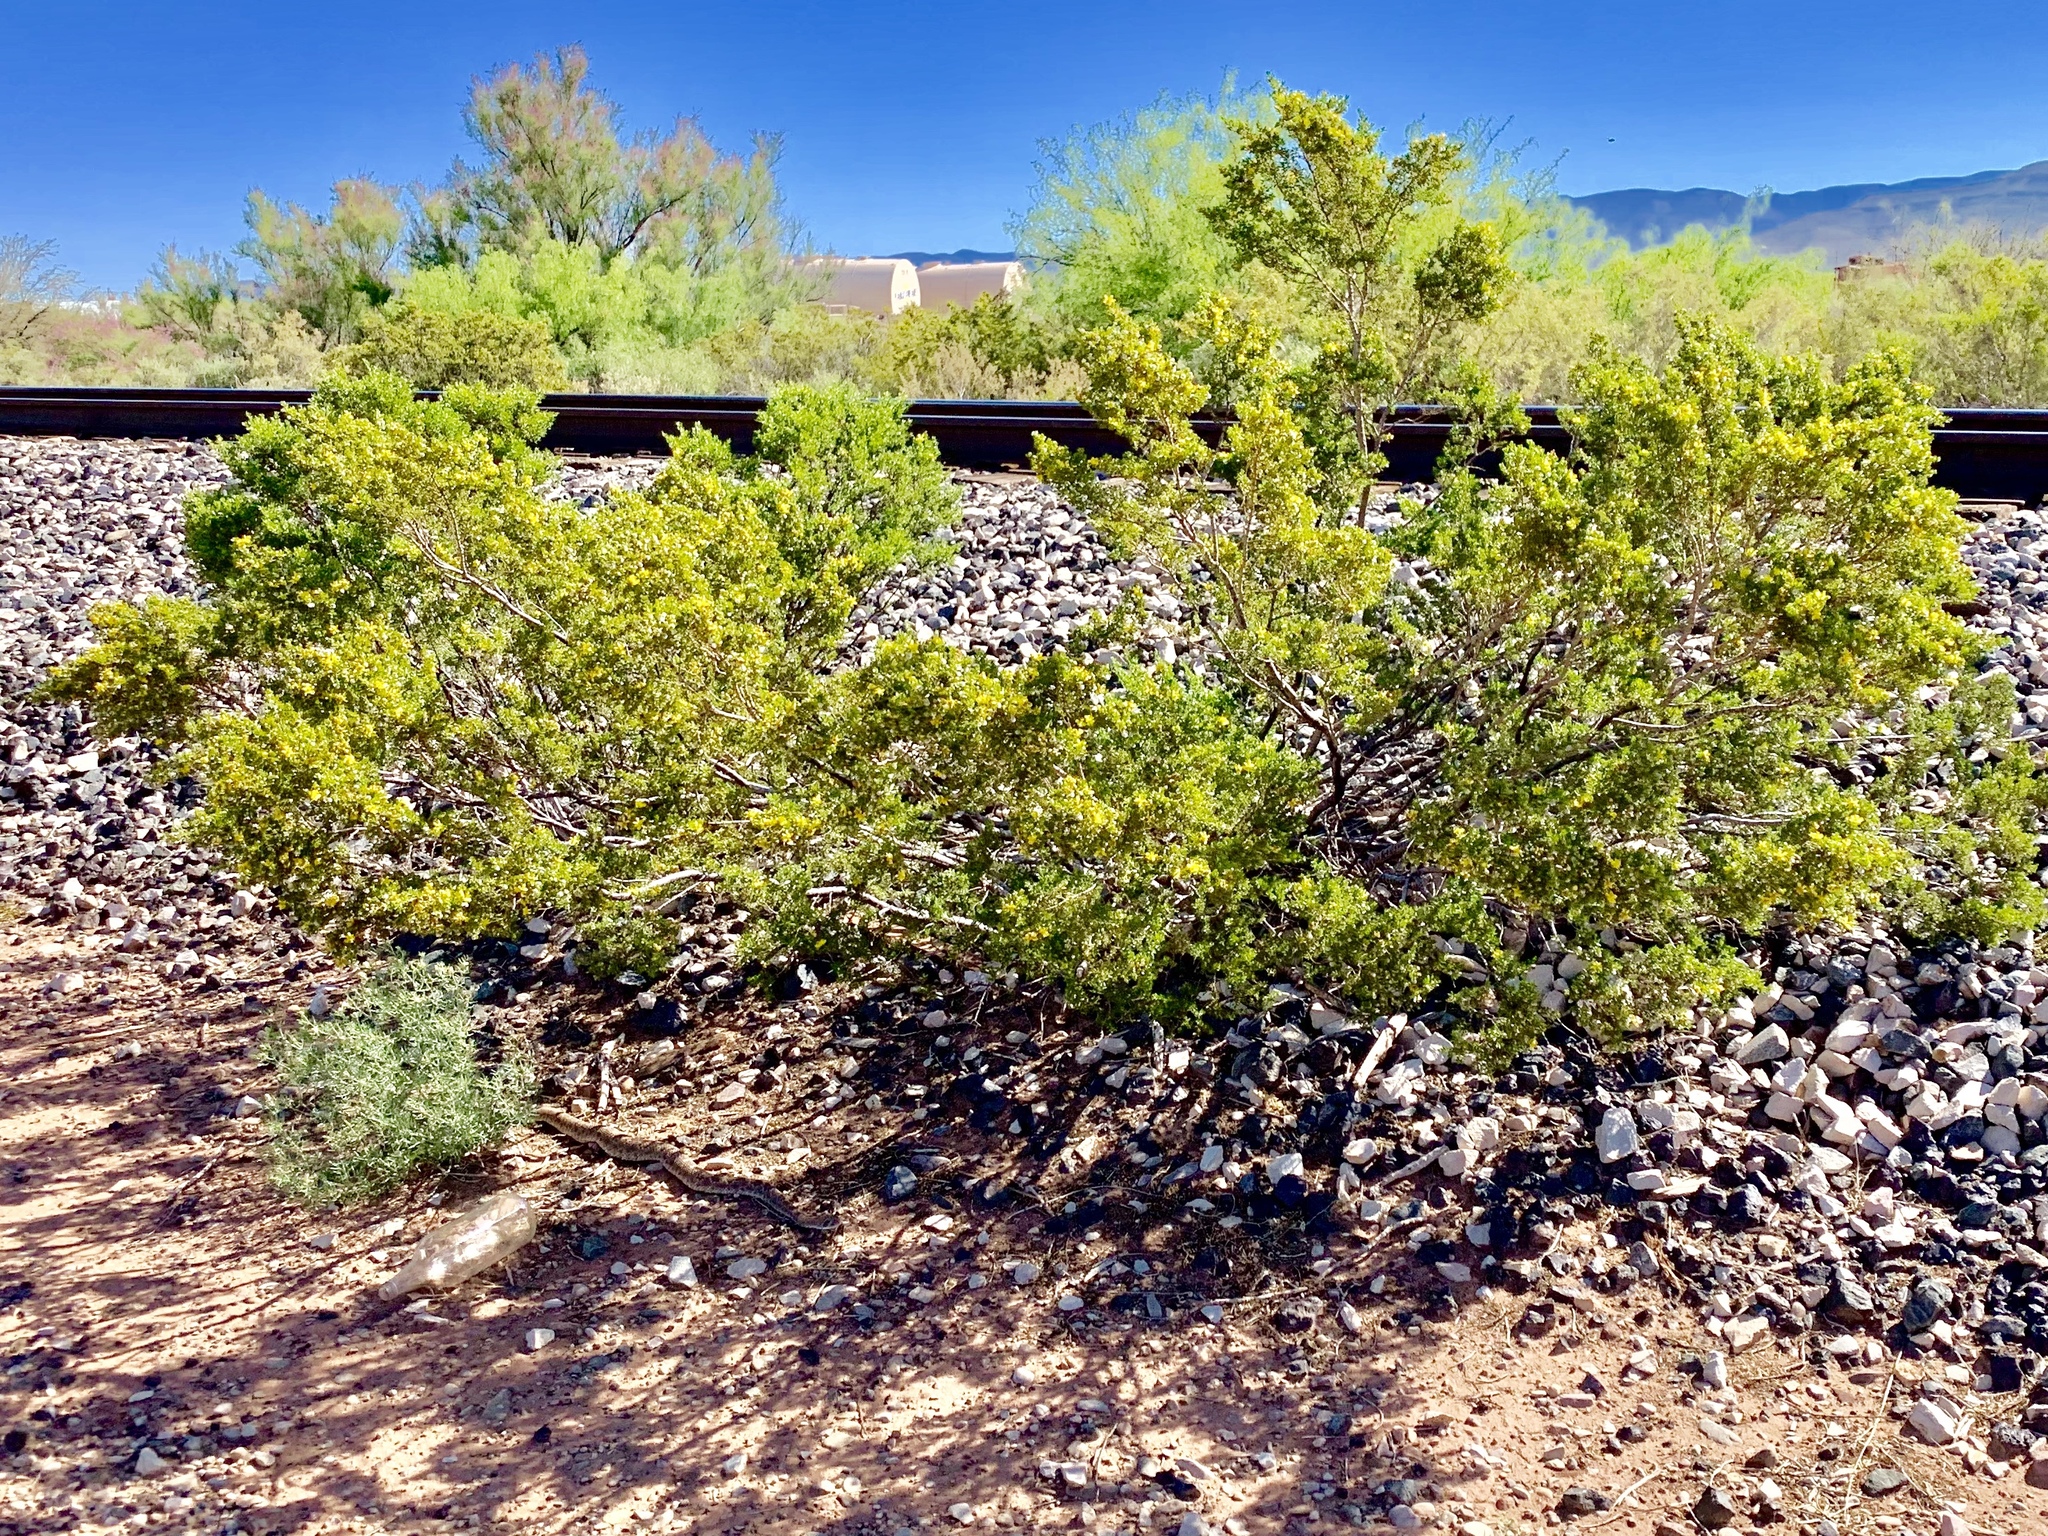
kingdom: Plantae
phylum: Tracheophyta
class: Magnoliopsida
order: Zygophyllales
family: Zygophyllaceae
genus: Larrea
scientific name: Larrea tridentata
